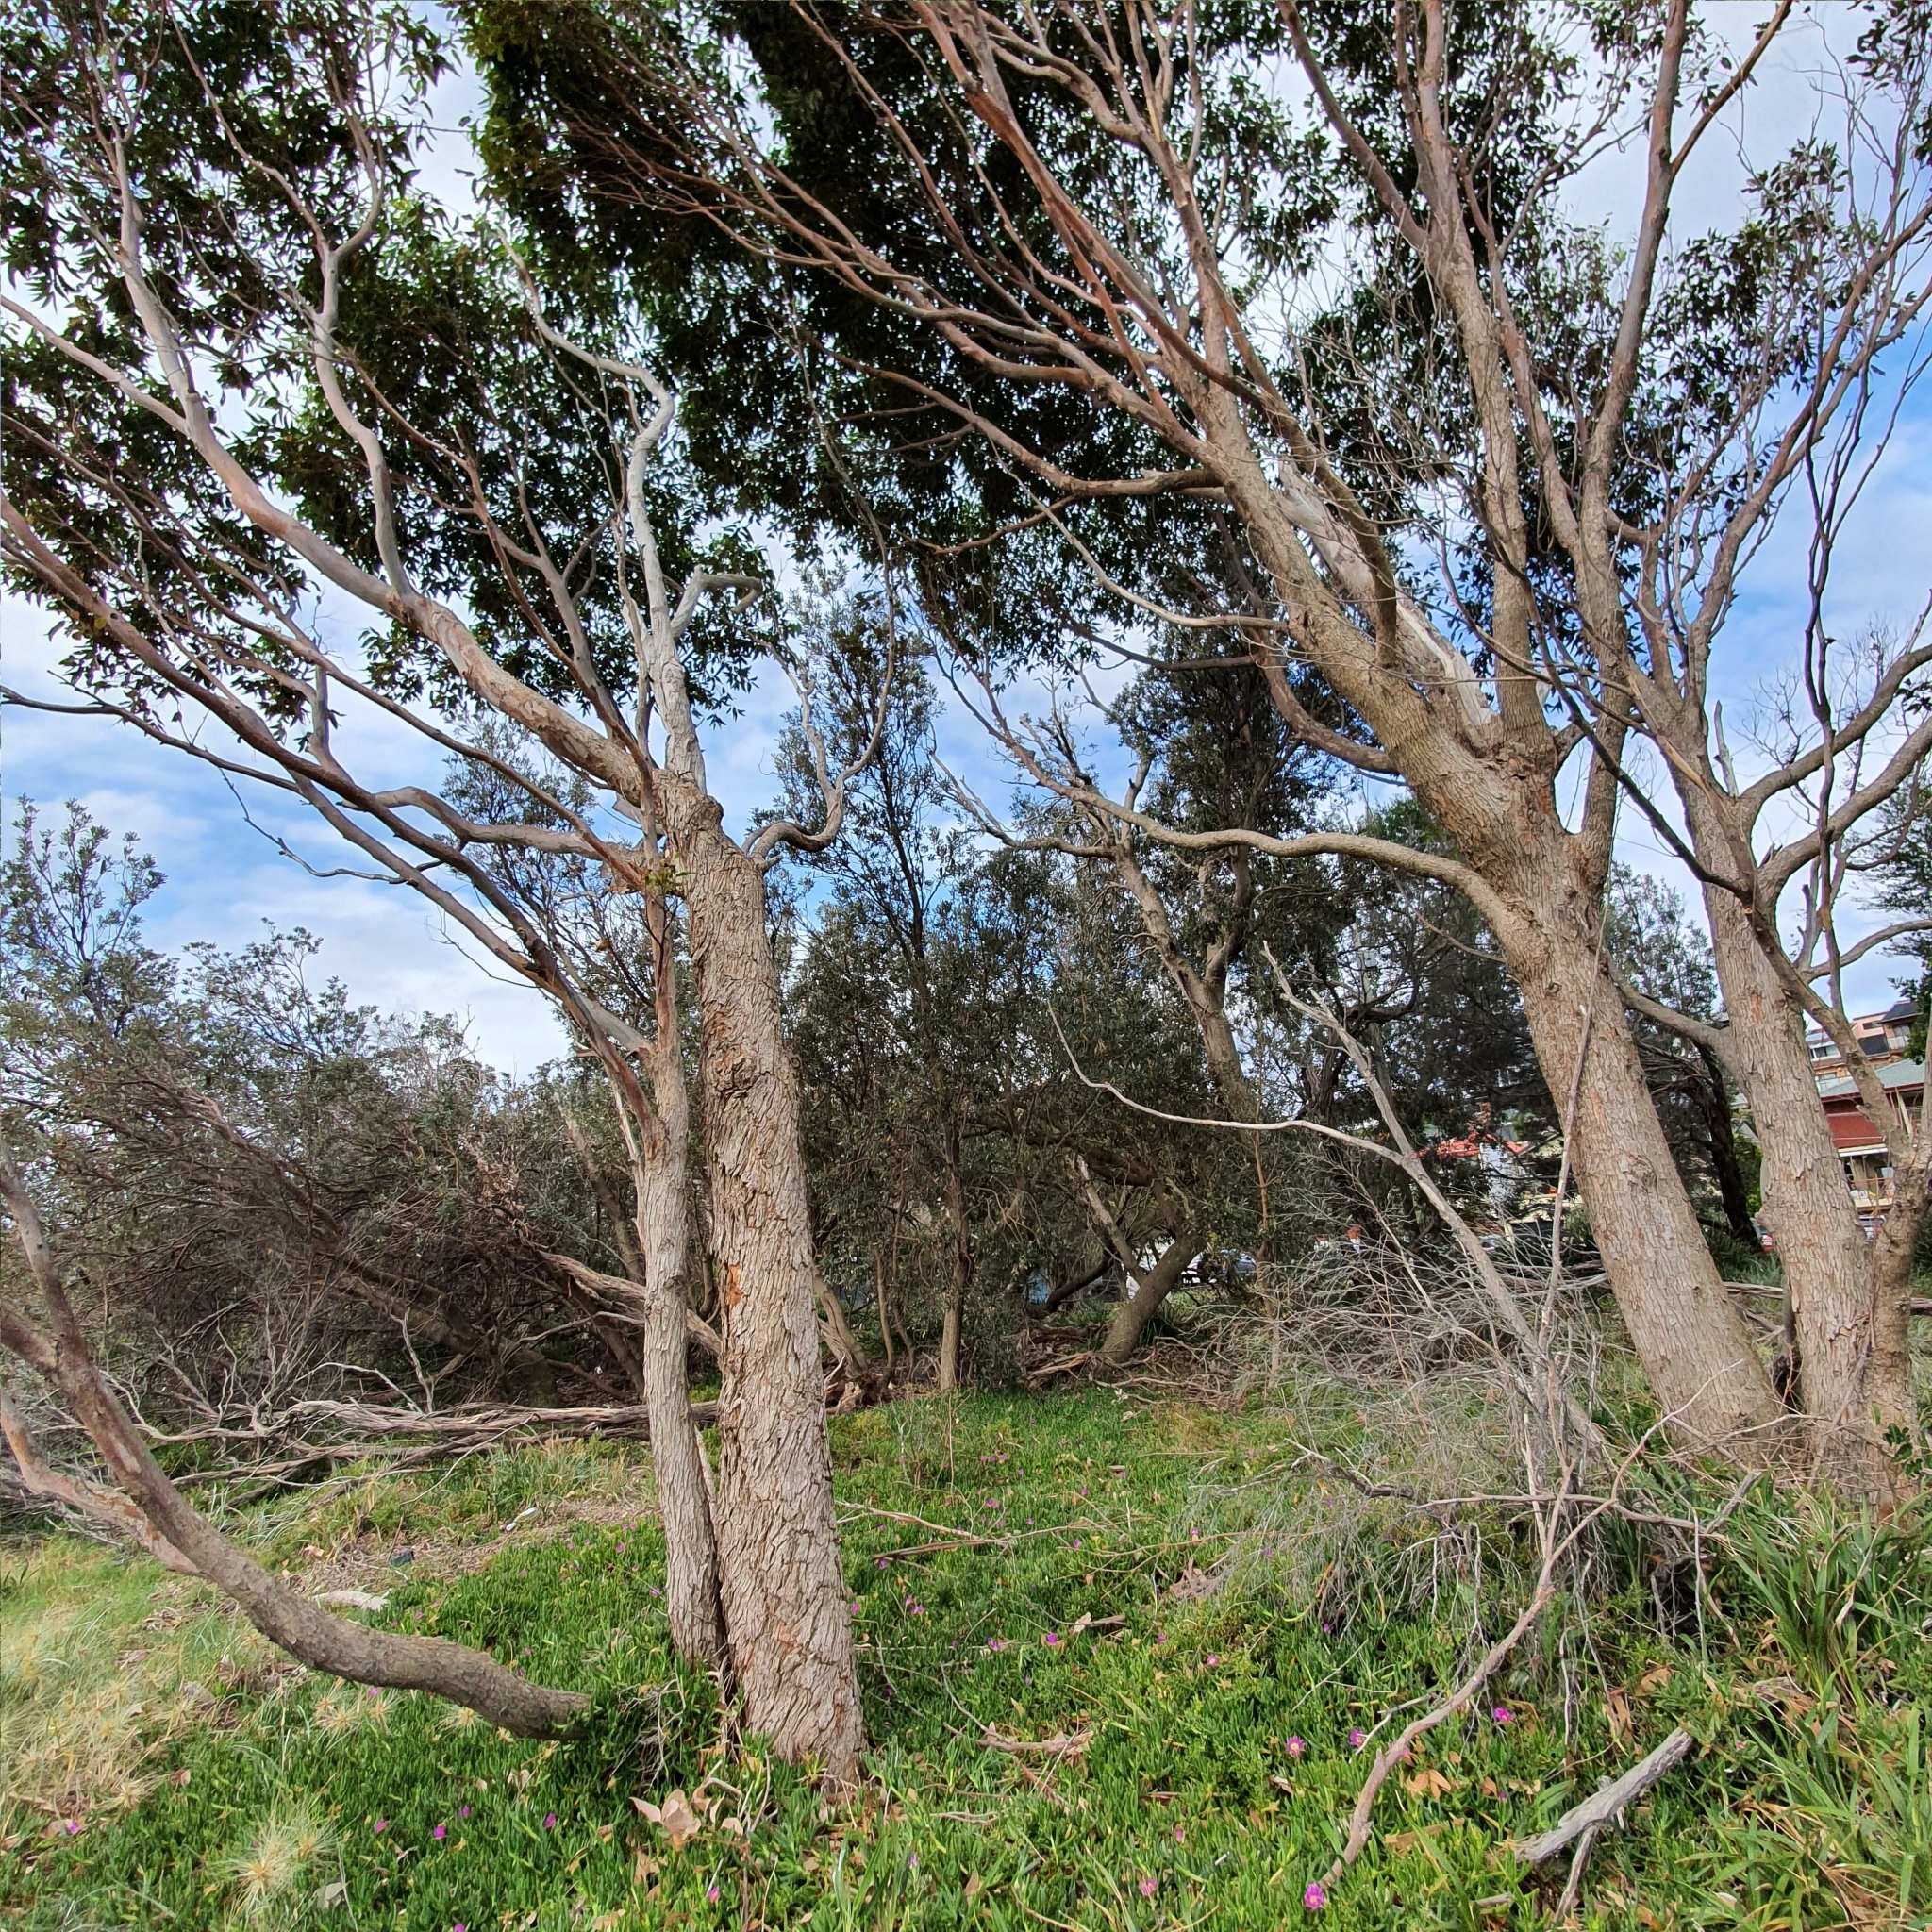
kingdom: Plantae
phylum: Tracheophyta
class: Magnoliopsida
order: Myrtales
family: Myrtaceae
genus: Eucalyptus
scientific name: Eucalyptus botryoides
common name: Bangalay
